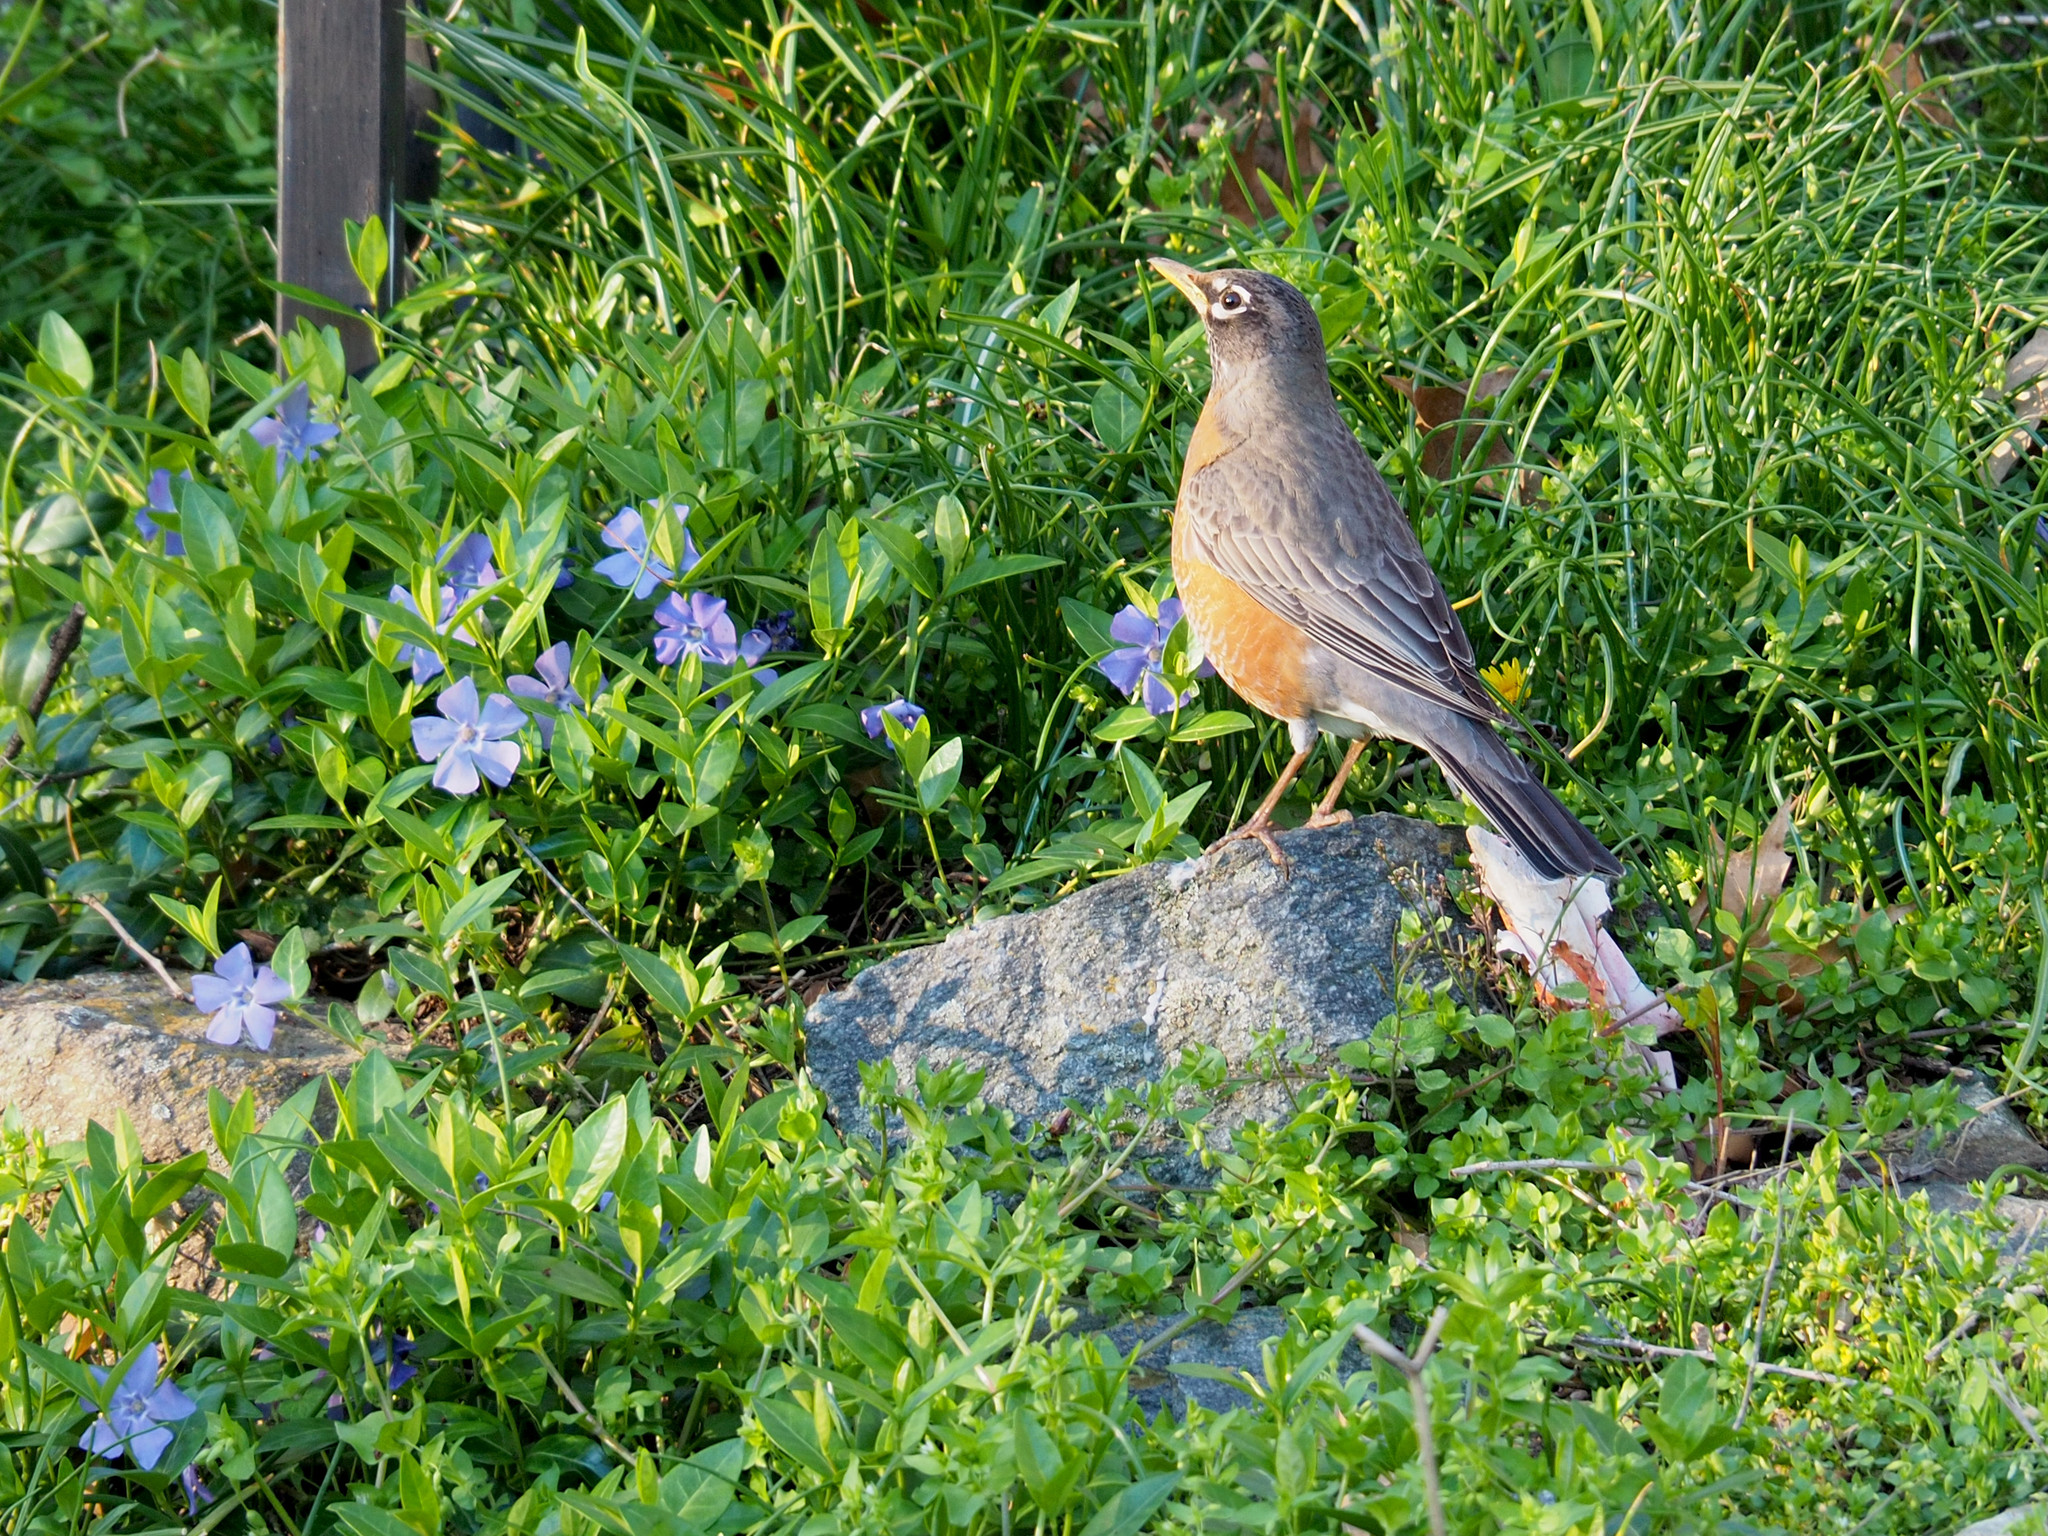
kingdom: Animalia
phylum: Chordata
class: Aves
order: Passeriformes
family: Turdidae
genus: Turdus
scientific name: Turdus migratorius
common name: American robin
